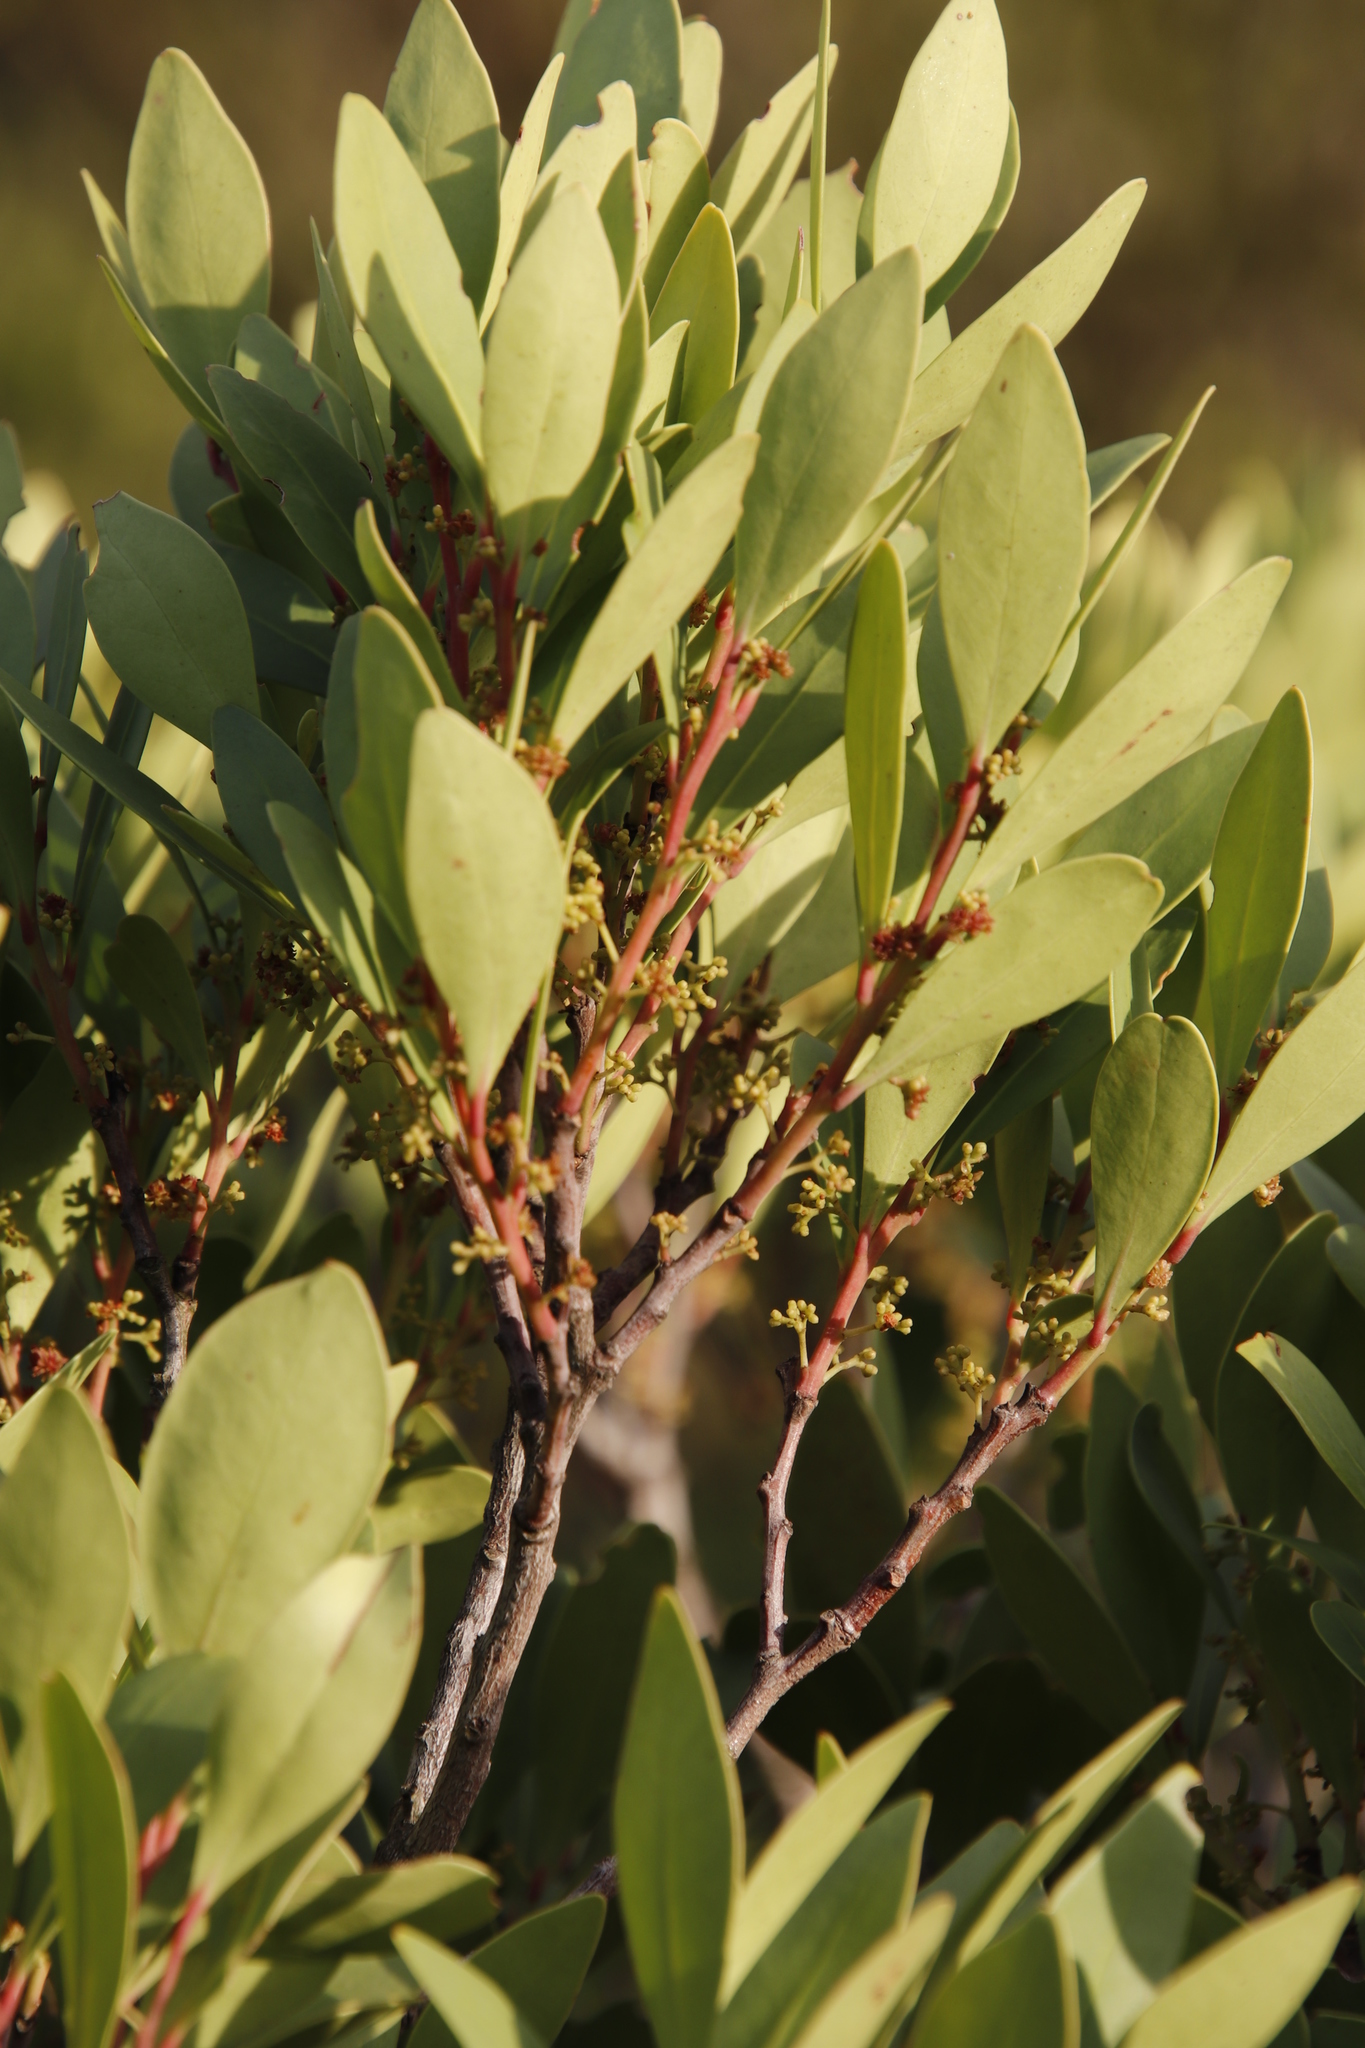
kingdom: Plantae
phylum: Tracheophyta
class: Magnoliopsida
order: Celastrales
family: Celastraceae
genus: Gymnosporia
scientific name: Gymnosporia laurina
